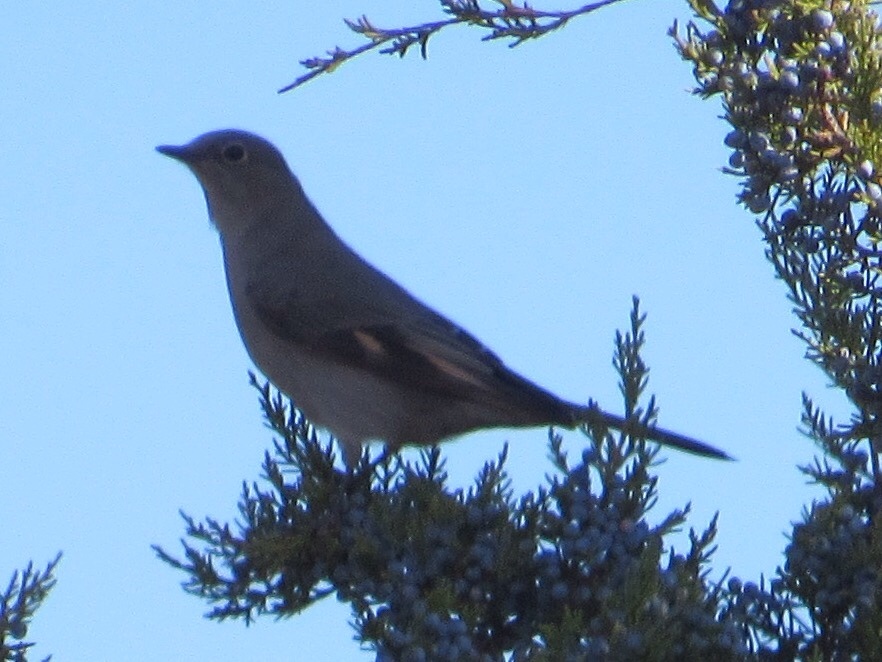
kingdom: Animalia
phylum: Chordata
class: Aves
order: Passeriformes
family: Turdidae
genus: Myadestes
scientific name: Myadestes townsendi
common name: Townsend's solitaire
